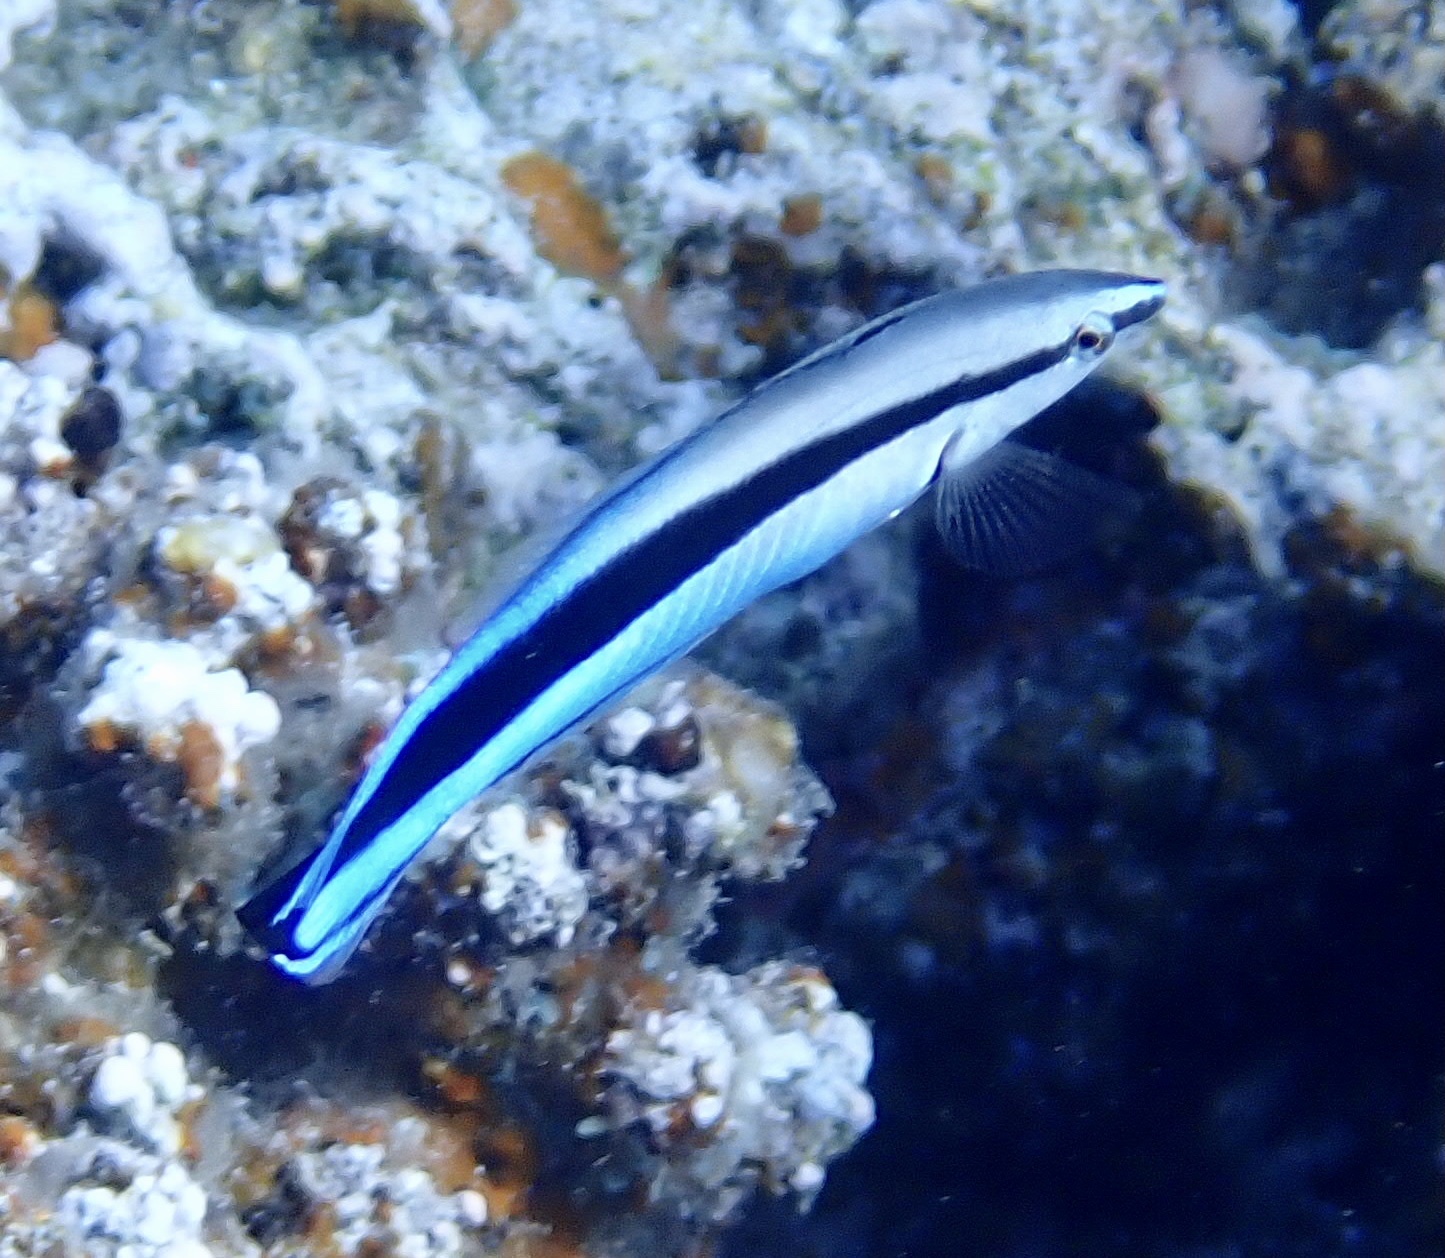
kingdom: Animalia
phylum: Chordata
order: Perciformes
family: Labridae
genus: Labroides
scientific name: Labroides dimidiatus
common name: Blue diesel wrasse
